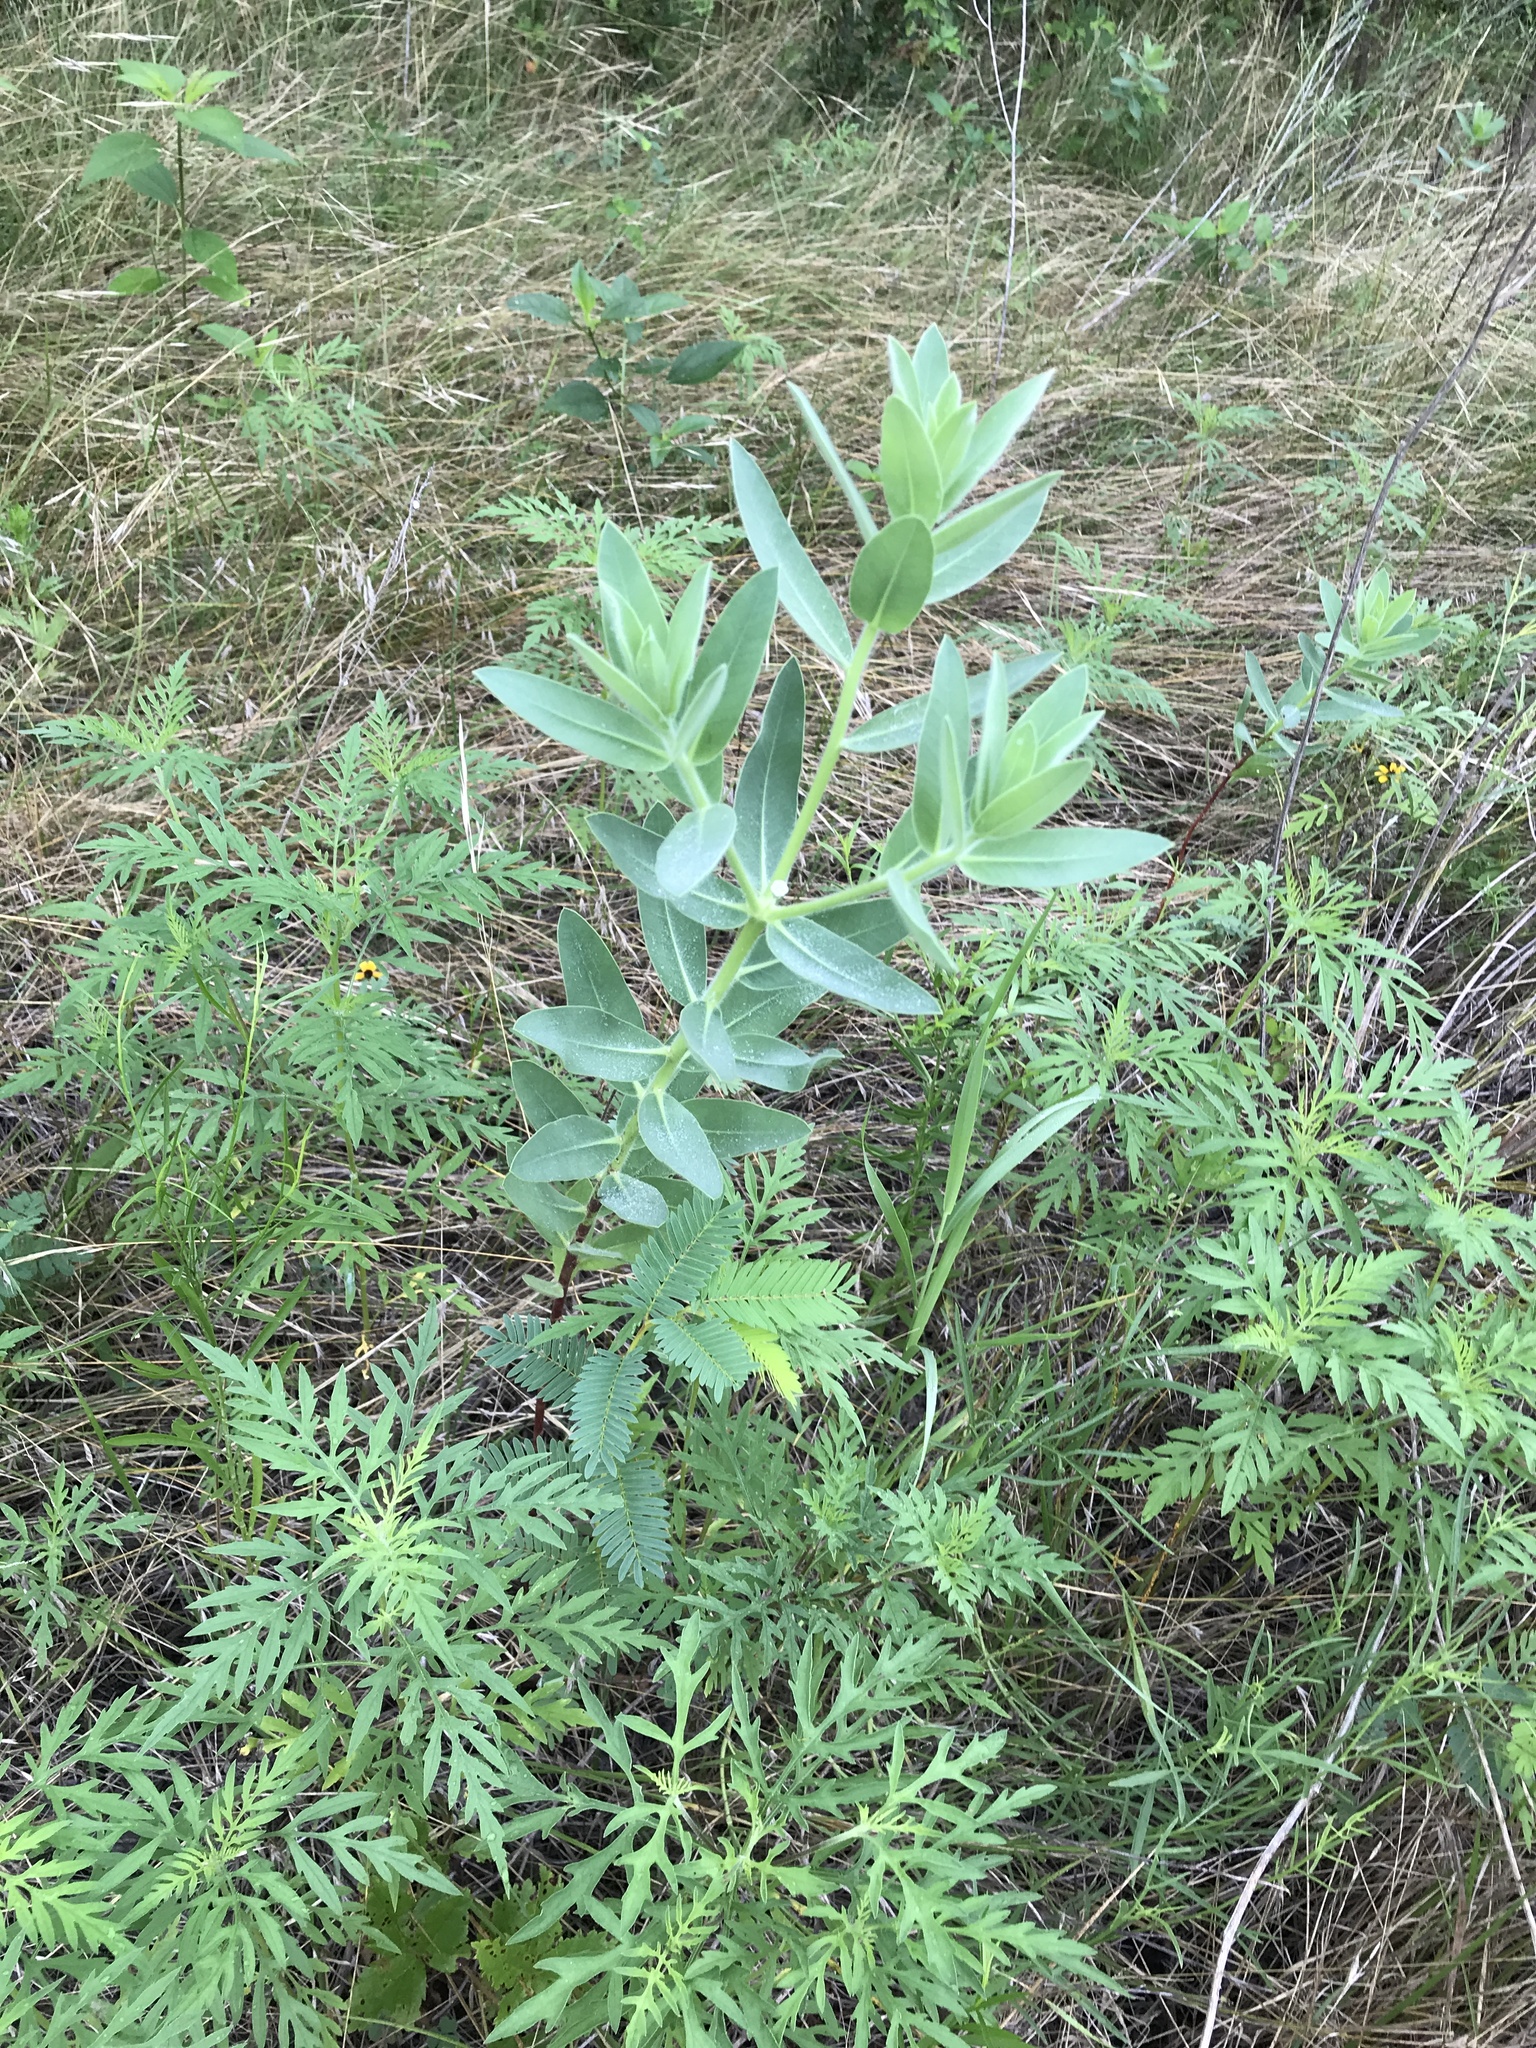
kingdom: Plantae
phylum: Tracheophyta
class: Magnoliopsida
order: Malpighiales
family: Euphorbiaceae
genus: Euphorbia
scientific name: Euphorbia bicolor
